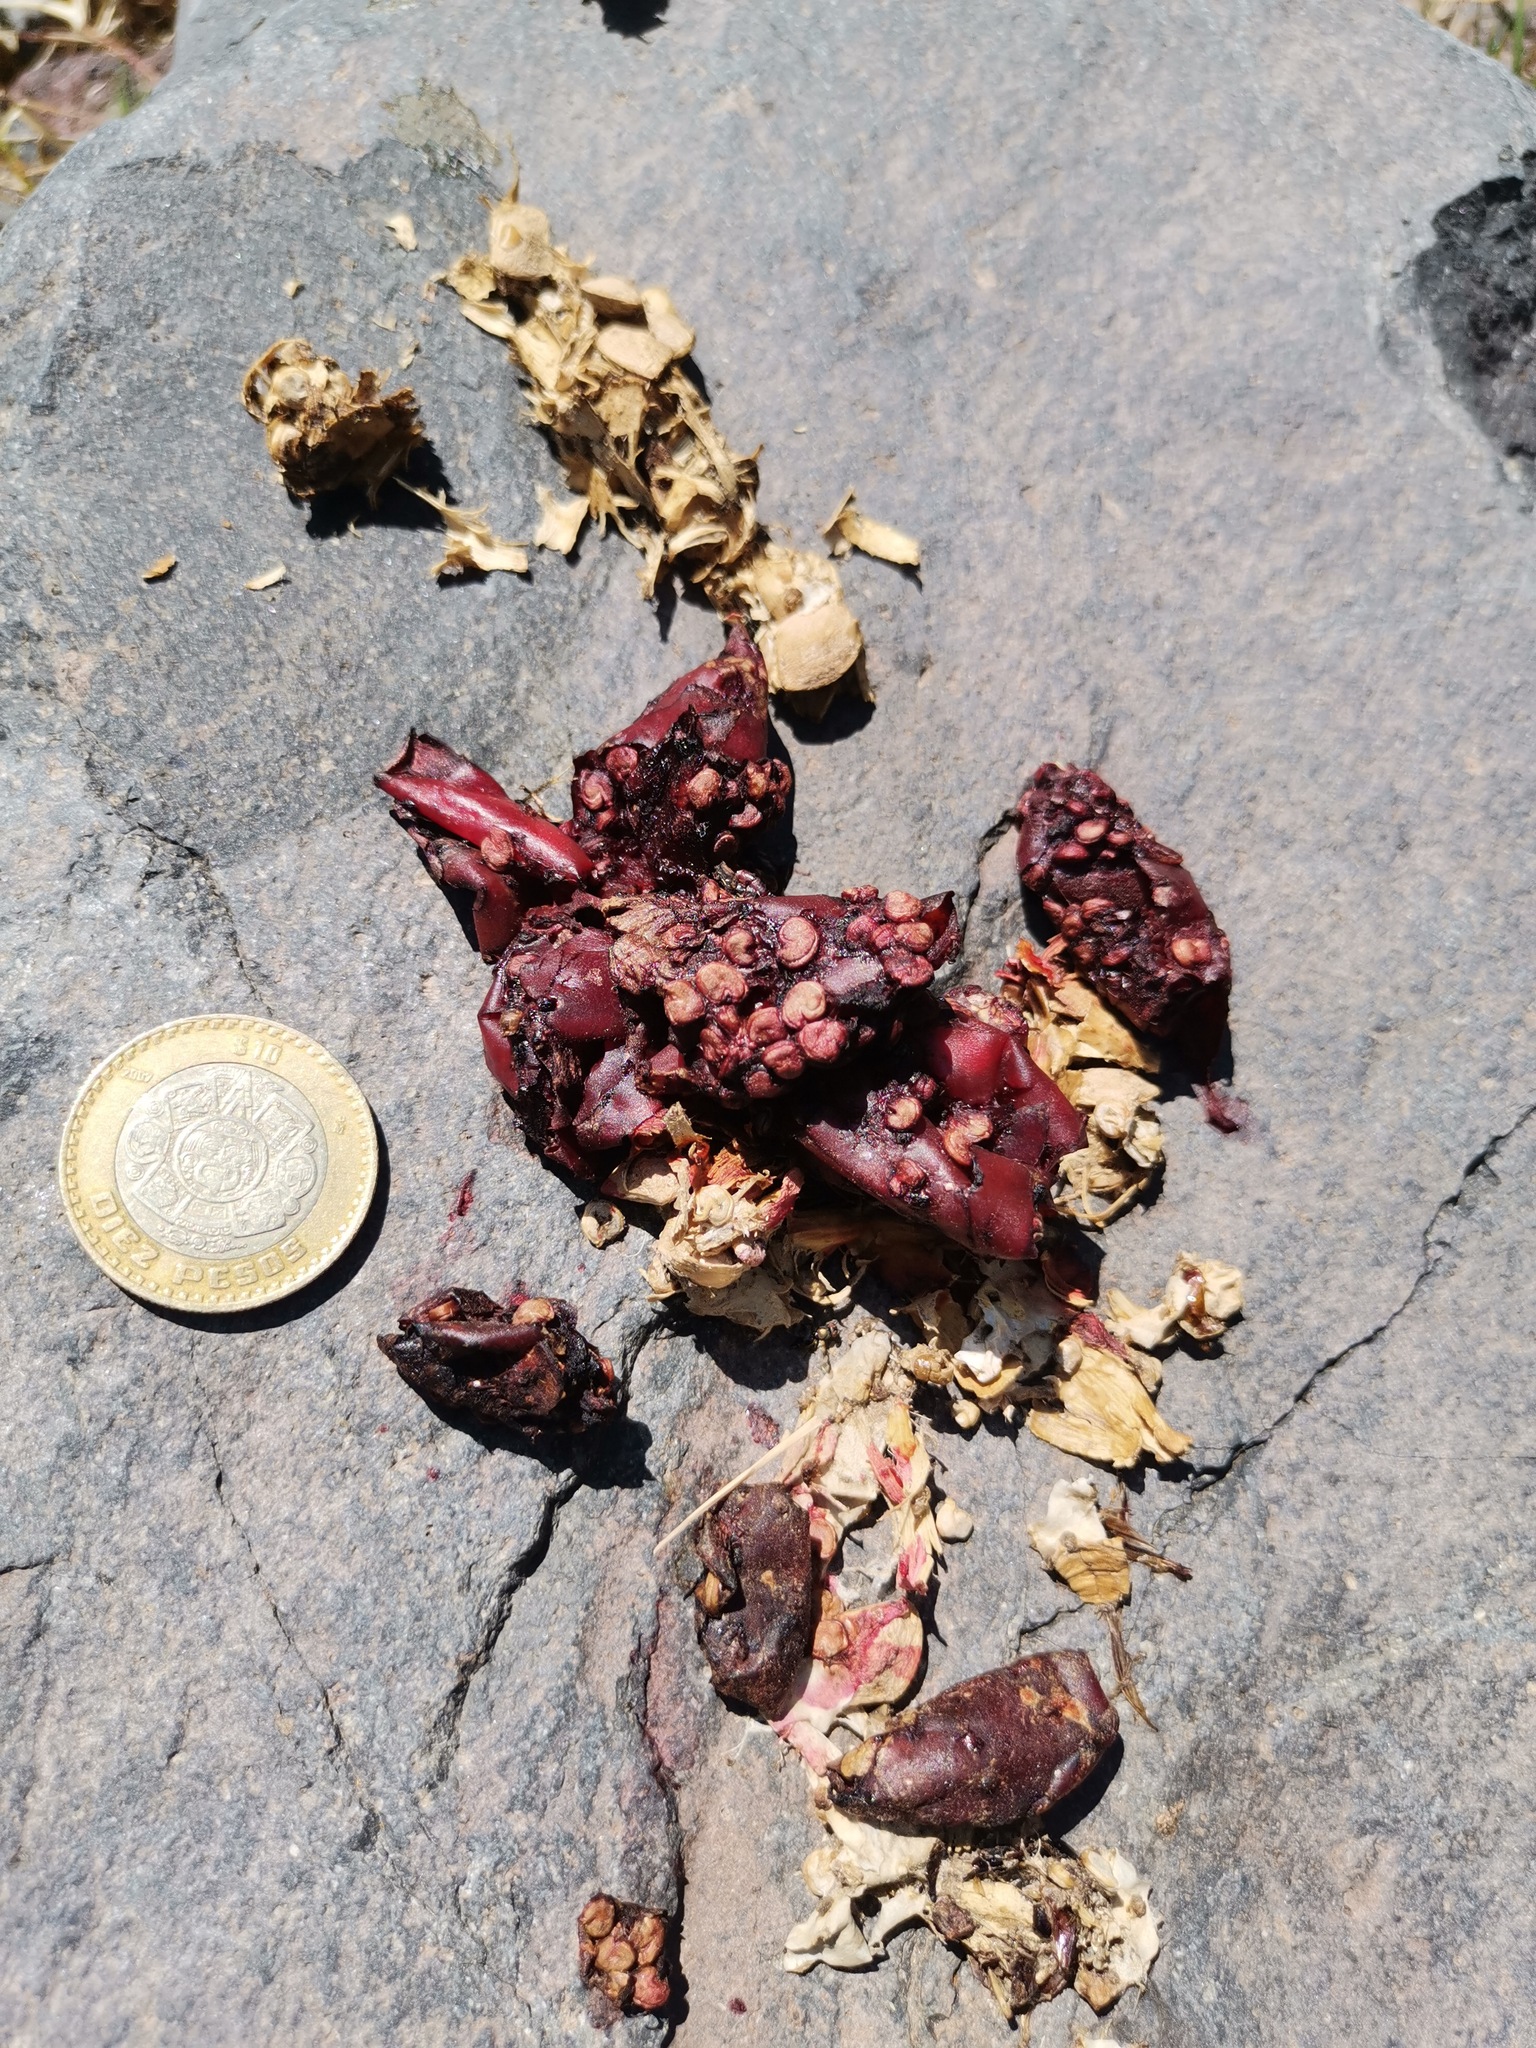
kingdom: Animalia
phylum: Chordata
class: Mammalia
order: Carnivora
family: Procyonidae
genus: Bassariscus
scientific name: Bassariscus astutus
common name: Ringtail
